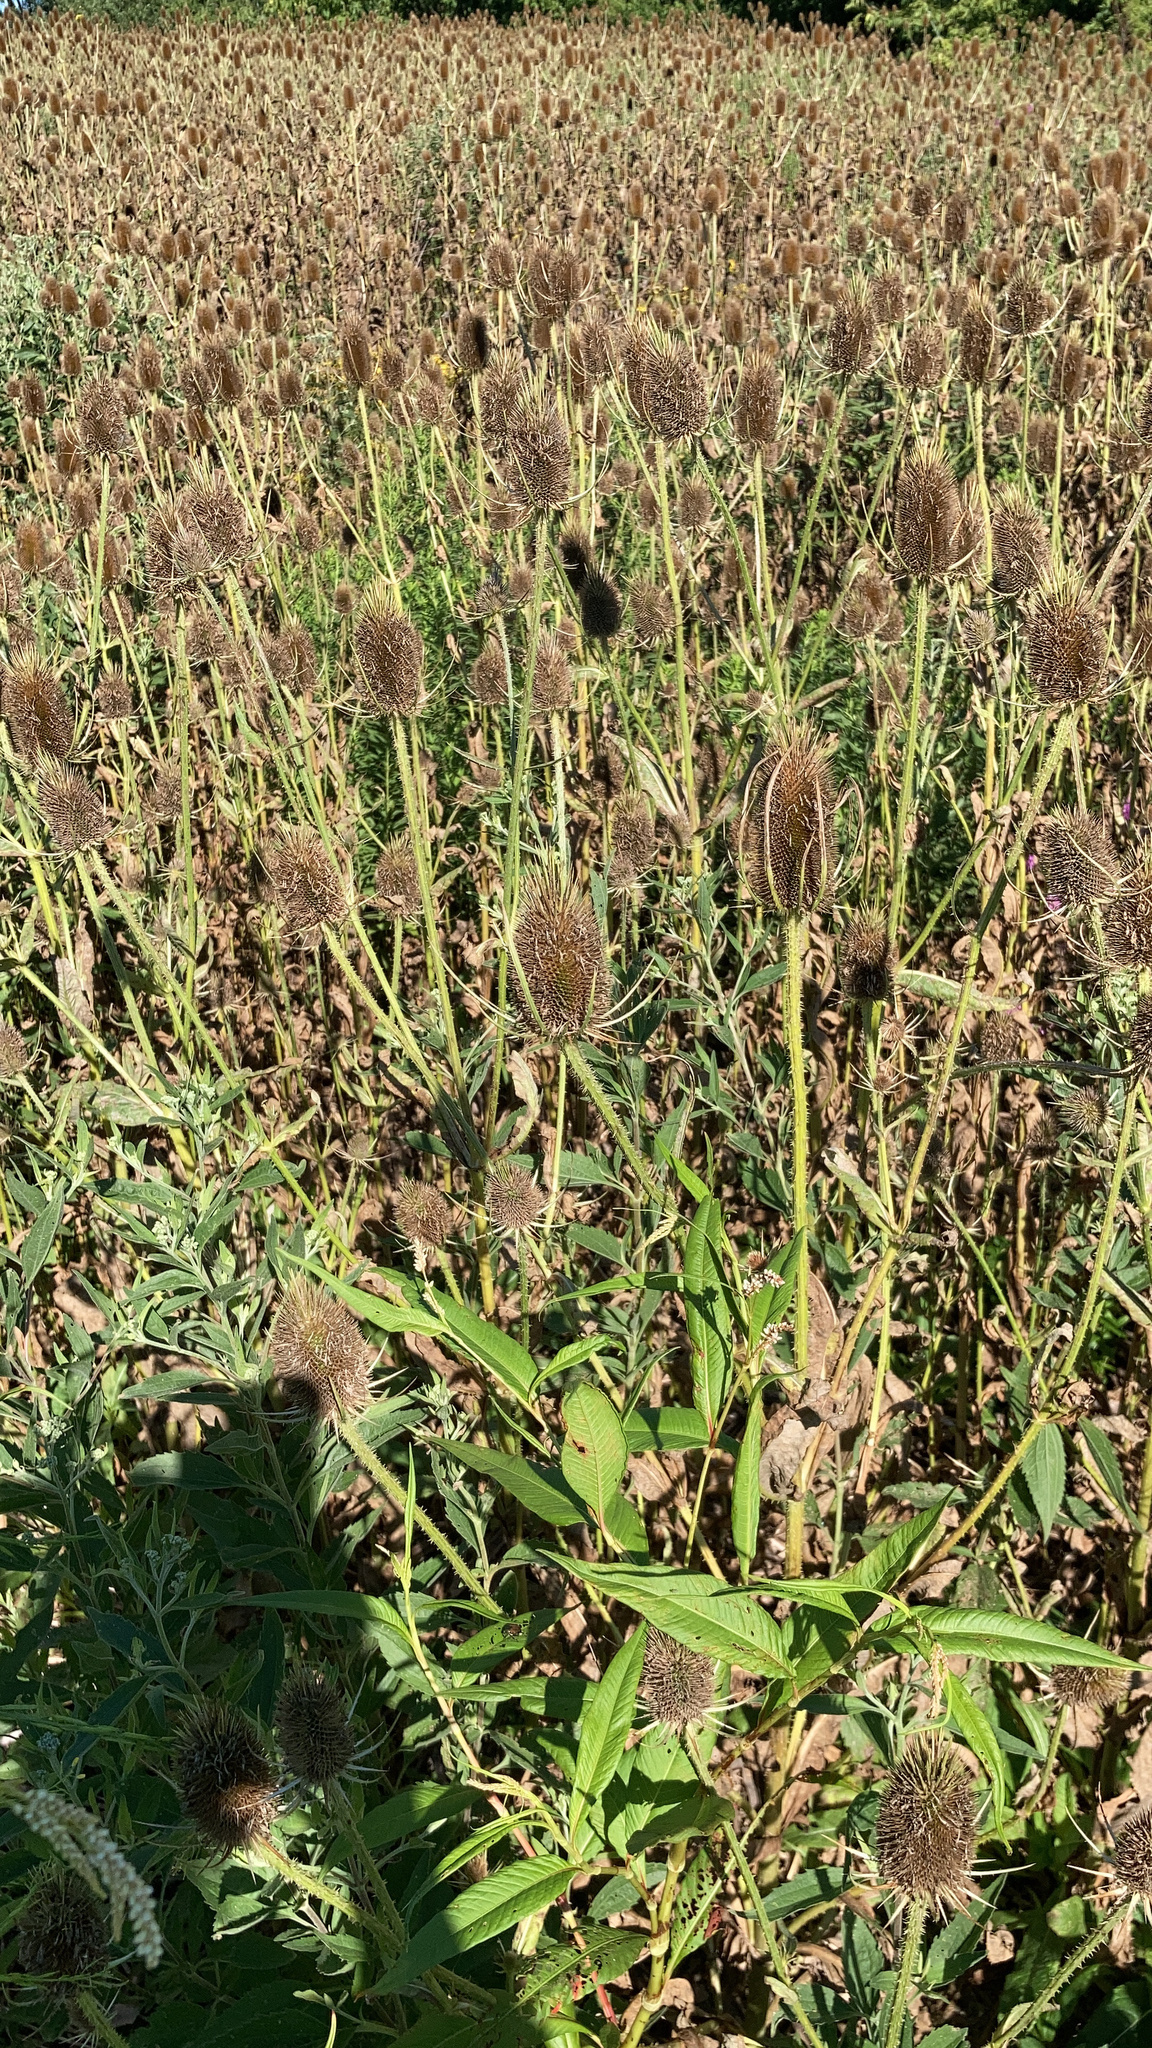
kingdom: Plantae
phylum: Tracheophyta
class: Magnoliopsida
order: Dipsacales
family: Caprifoliaceae
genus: Dipsacus
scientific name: Dipsacus fullonum
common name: Teasel
